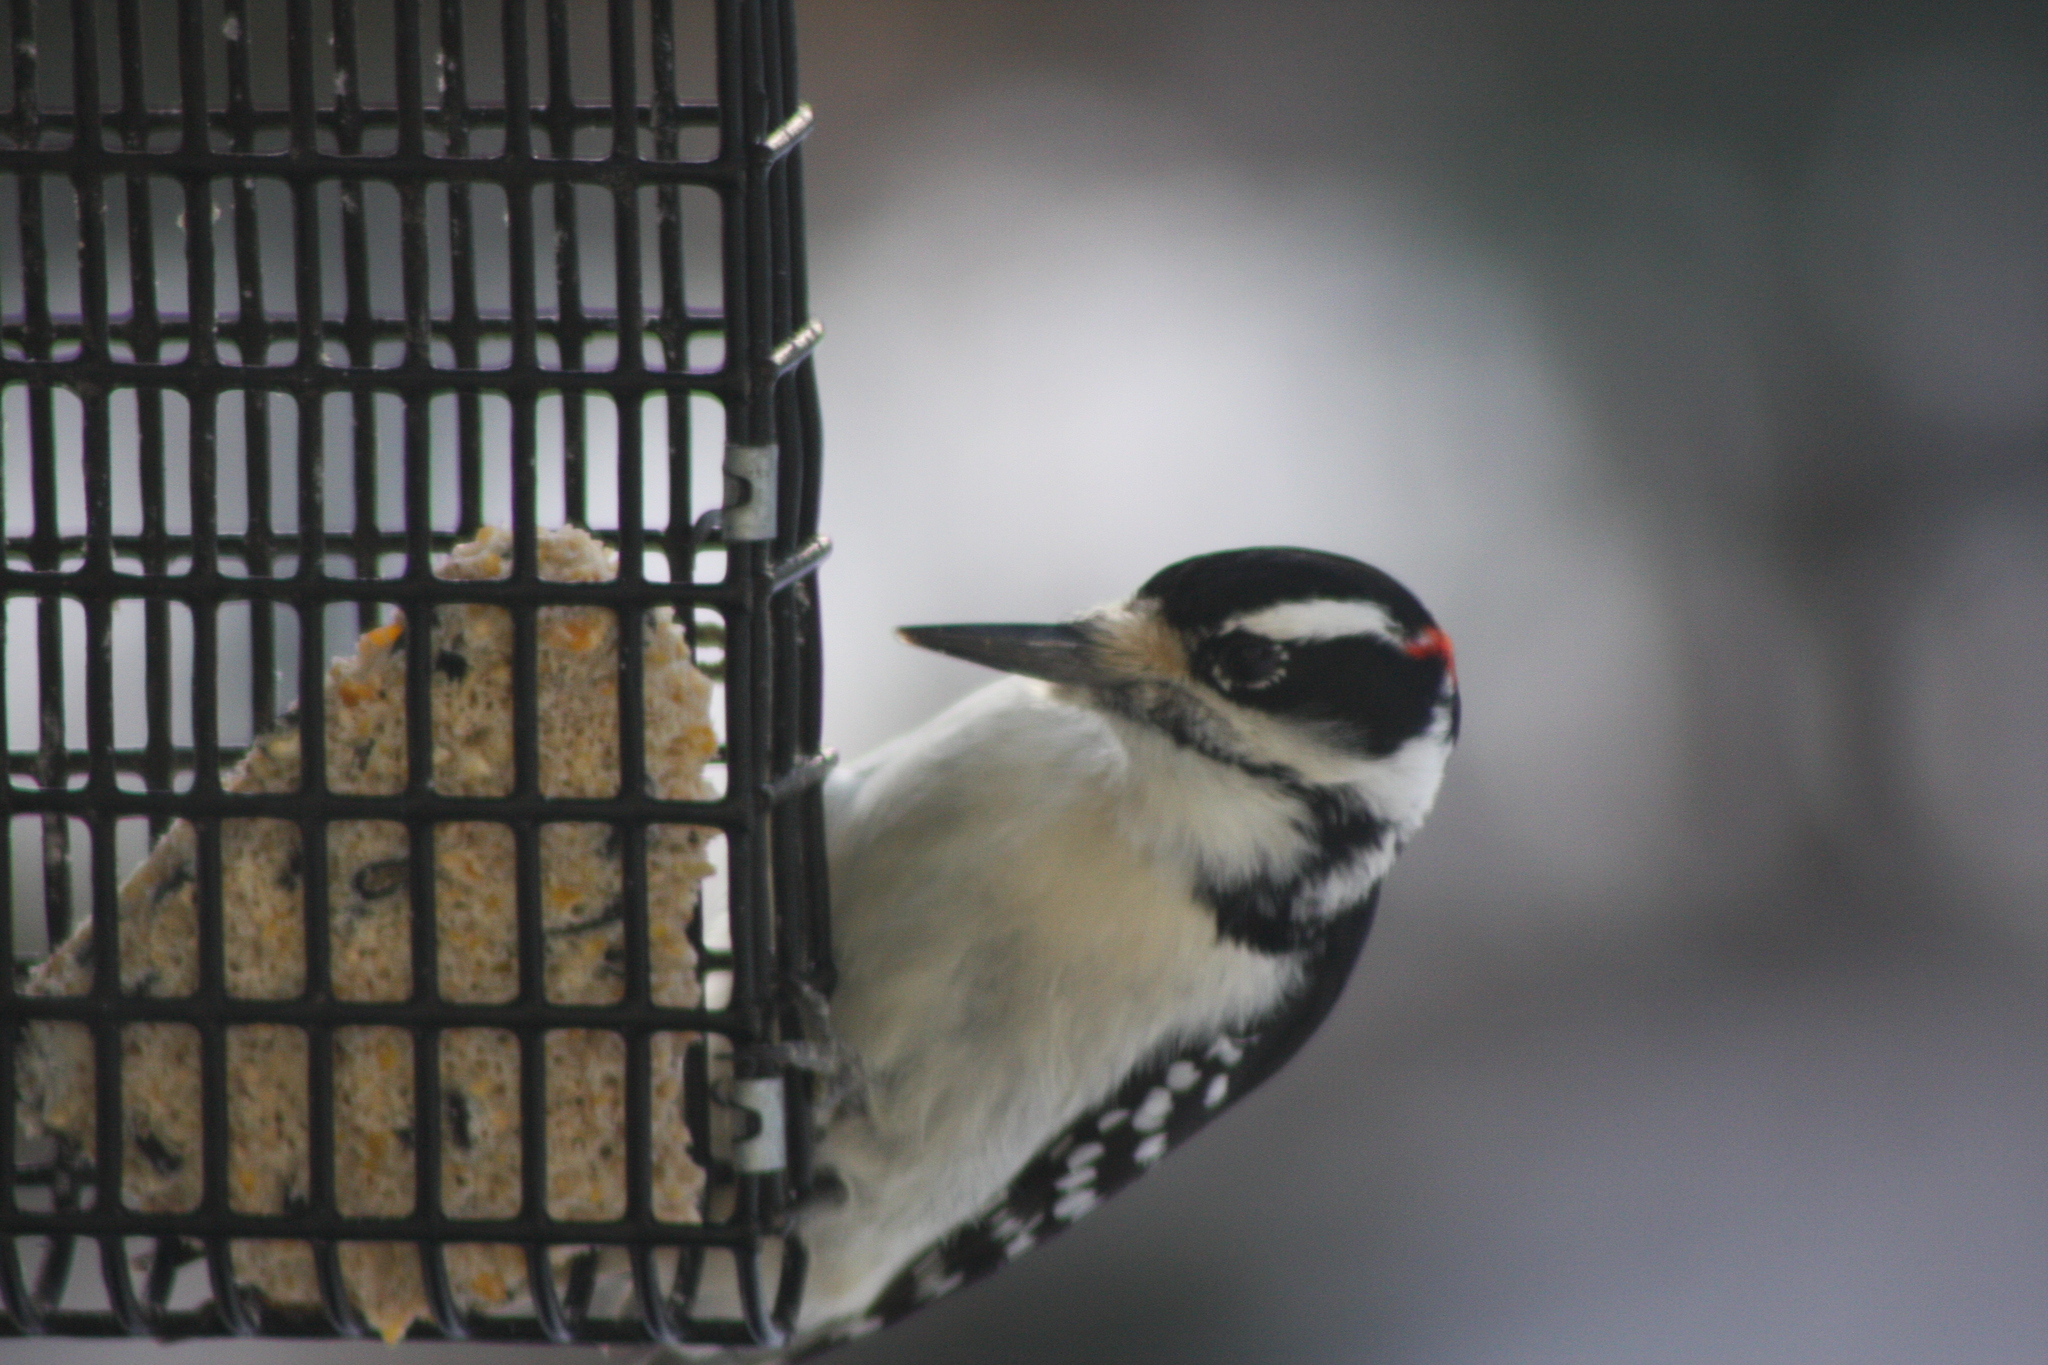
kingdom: Animalia
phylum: Chordata
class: Aves
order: Piciformes
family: Picidae
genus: Leuconotopicus
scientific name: Leuconotopicus villosus
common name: Hairy woodpecker
